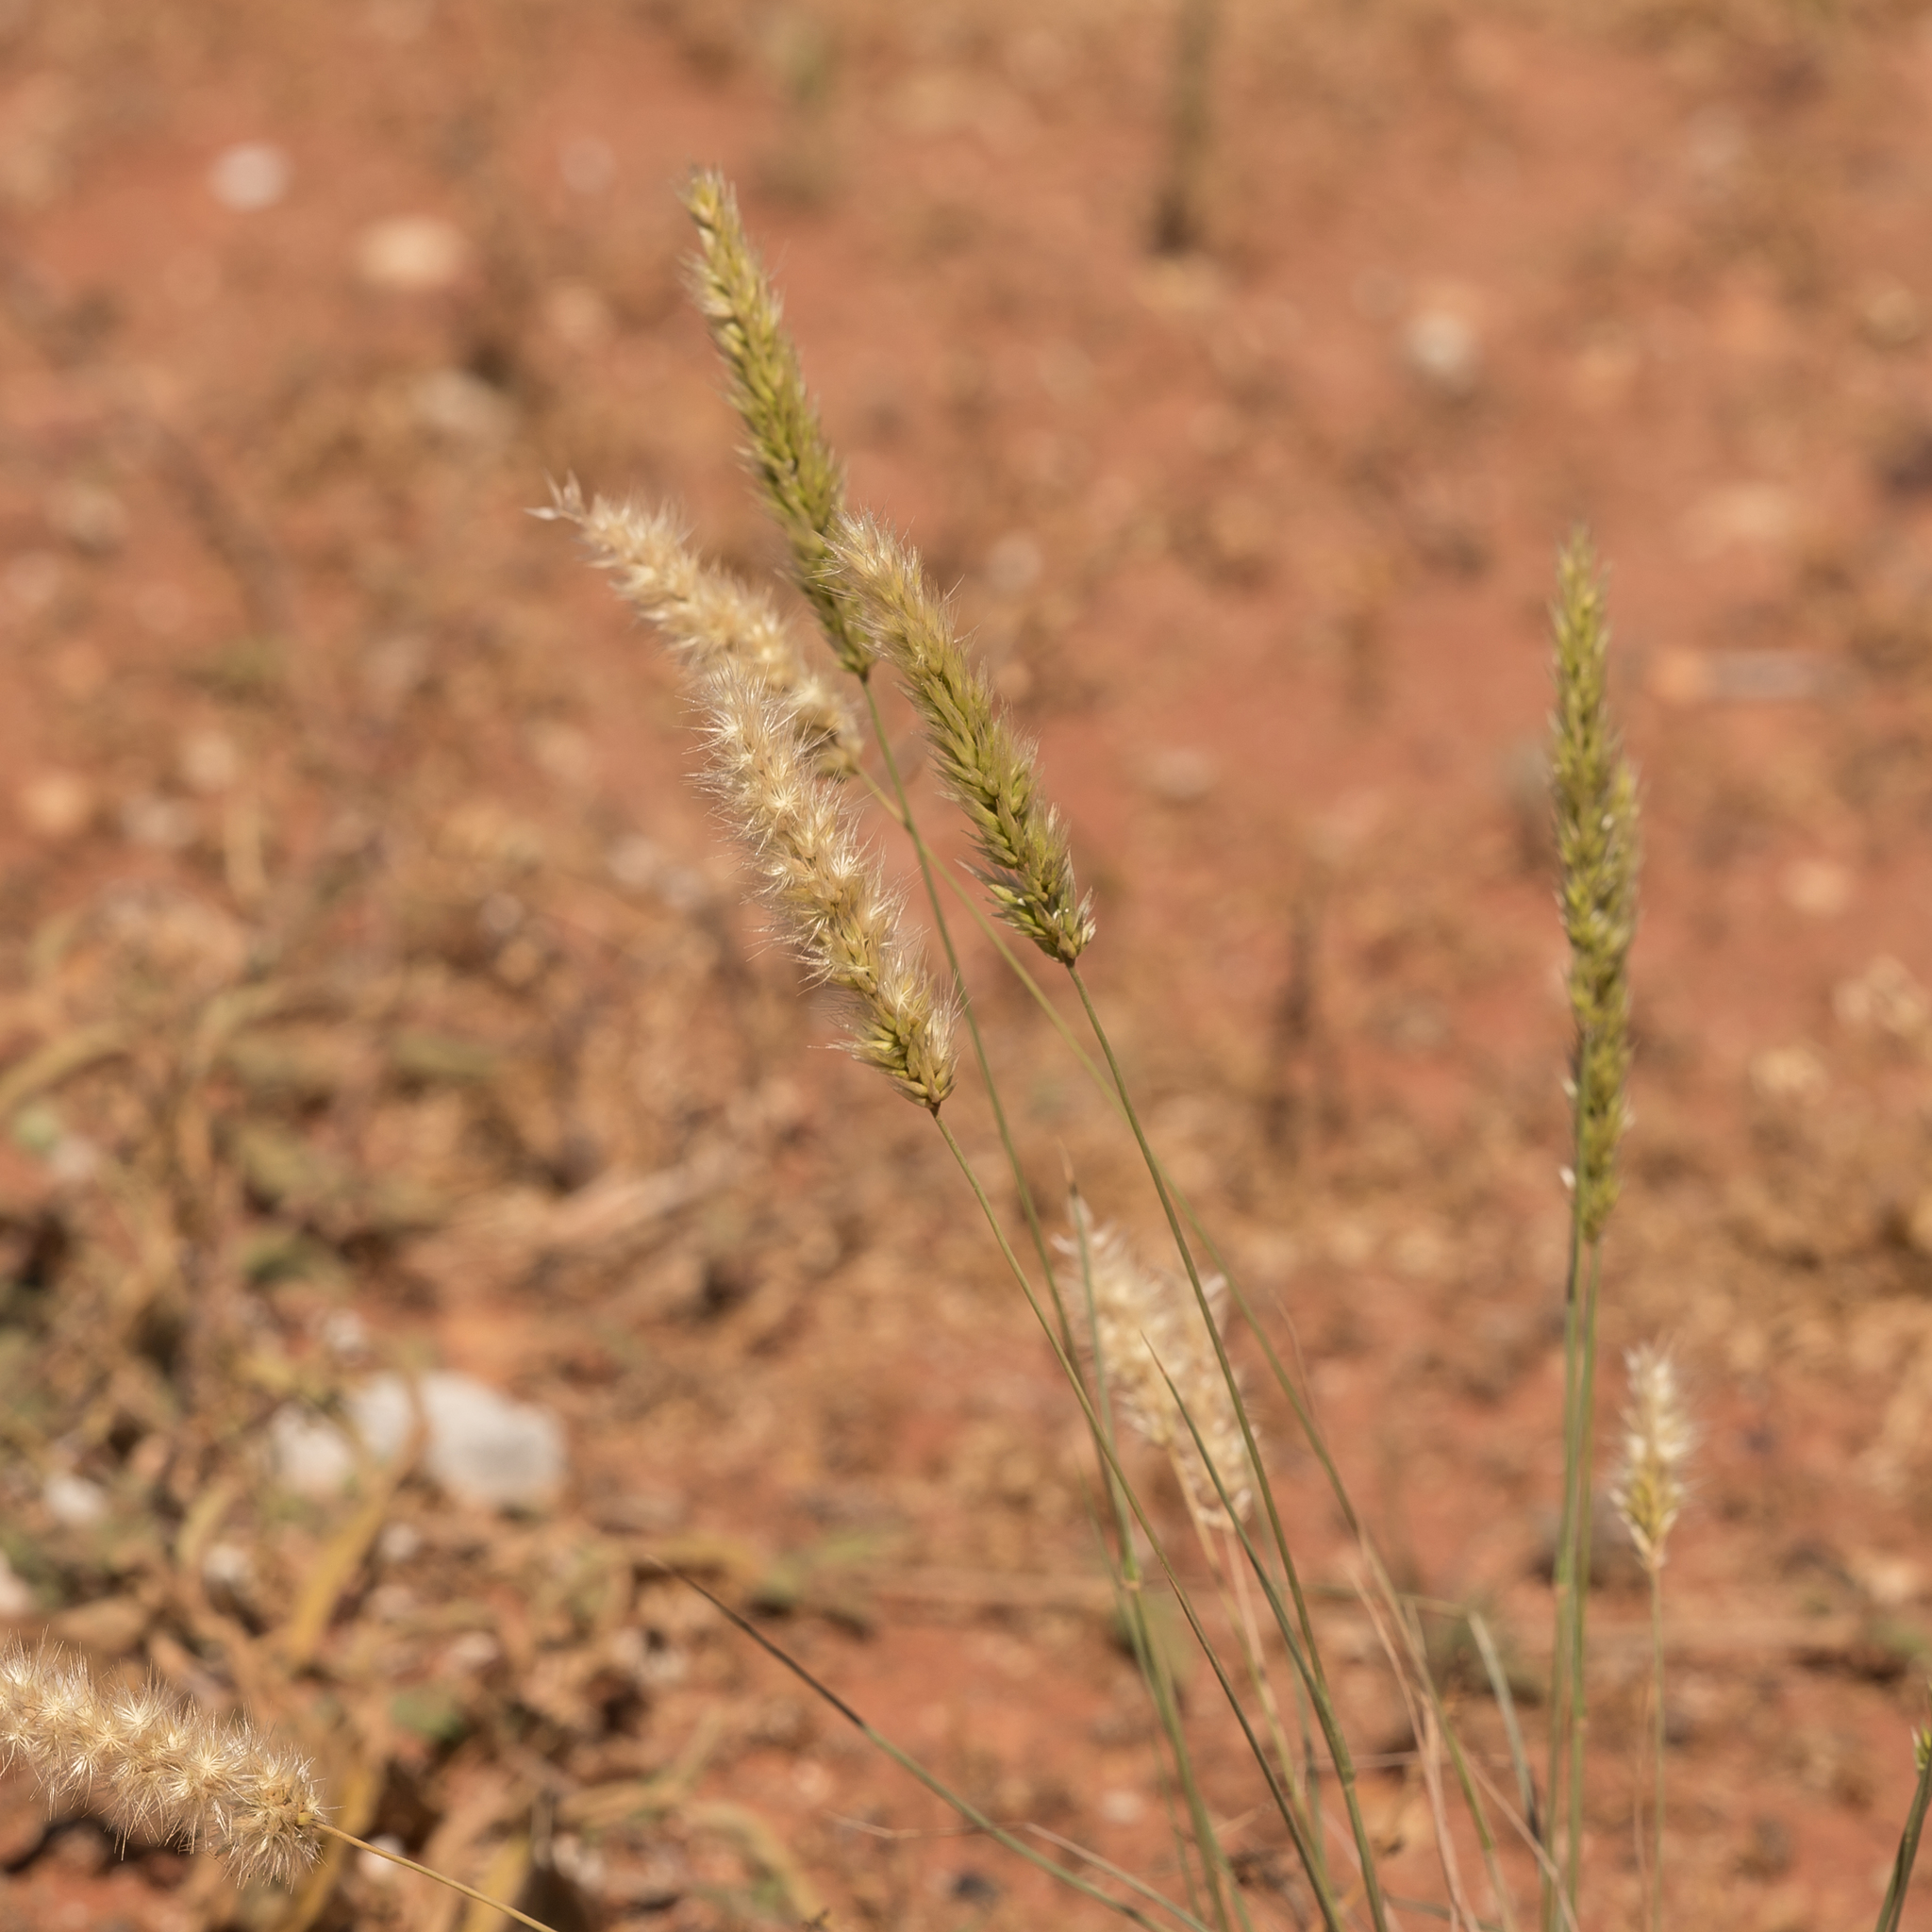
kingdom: Plantae
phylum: Tracheophyta
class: Liliopsida
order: Poales
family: Poaceae
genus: Enneapogon
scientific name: Enneapogon intermedius
